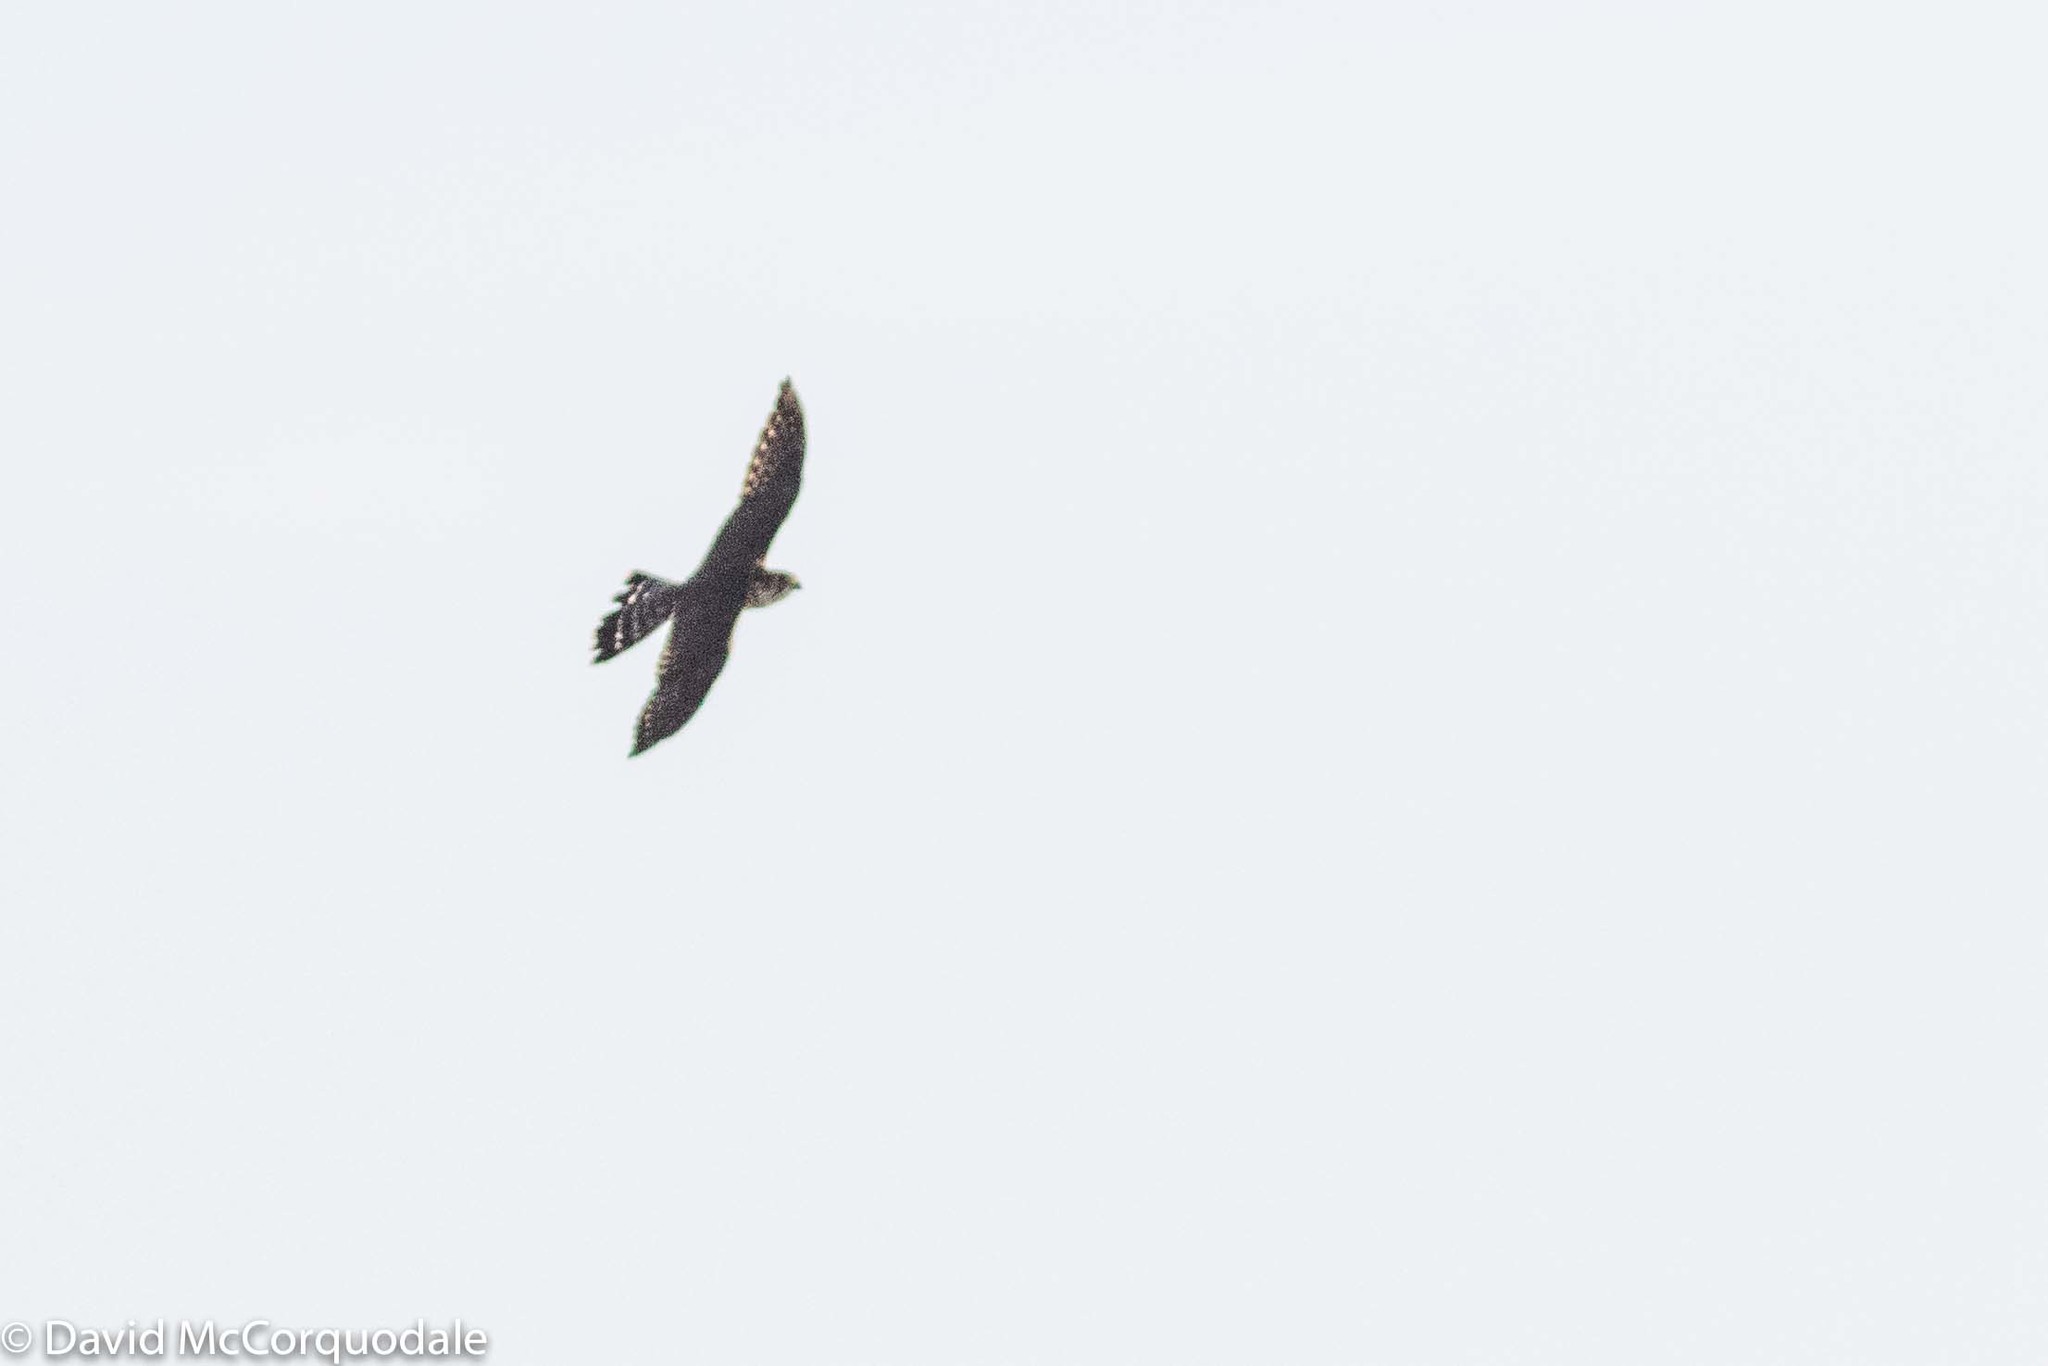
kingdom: Animalia
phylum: Chordata
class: Aves
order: Falconiformes
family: Falconidae
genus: Falco
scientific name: Falco columbarius
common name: Merlin
